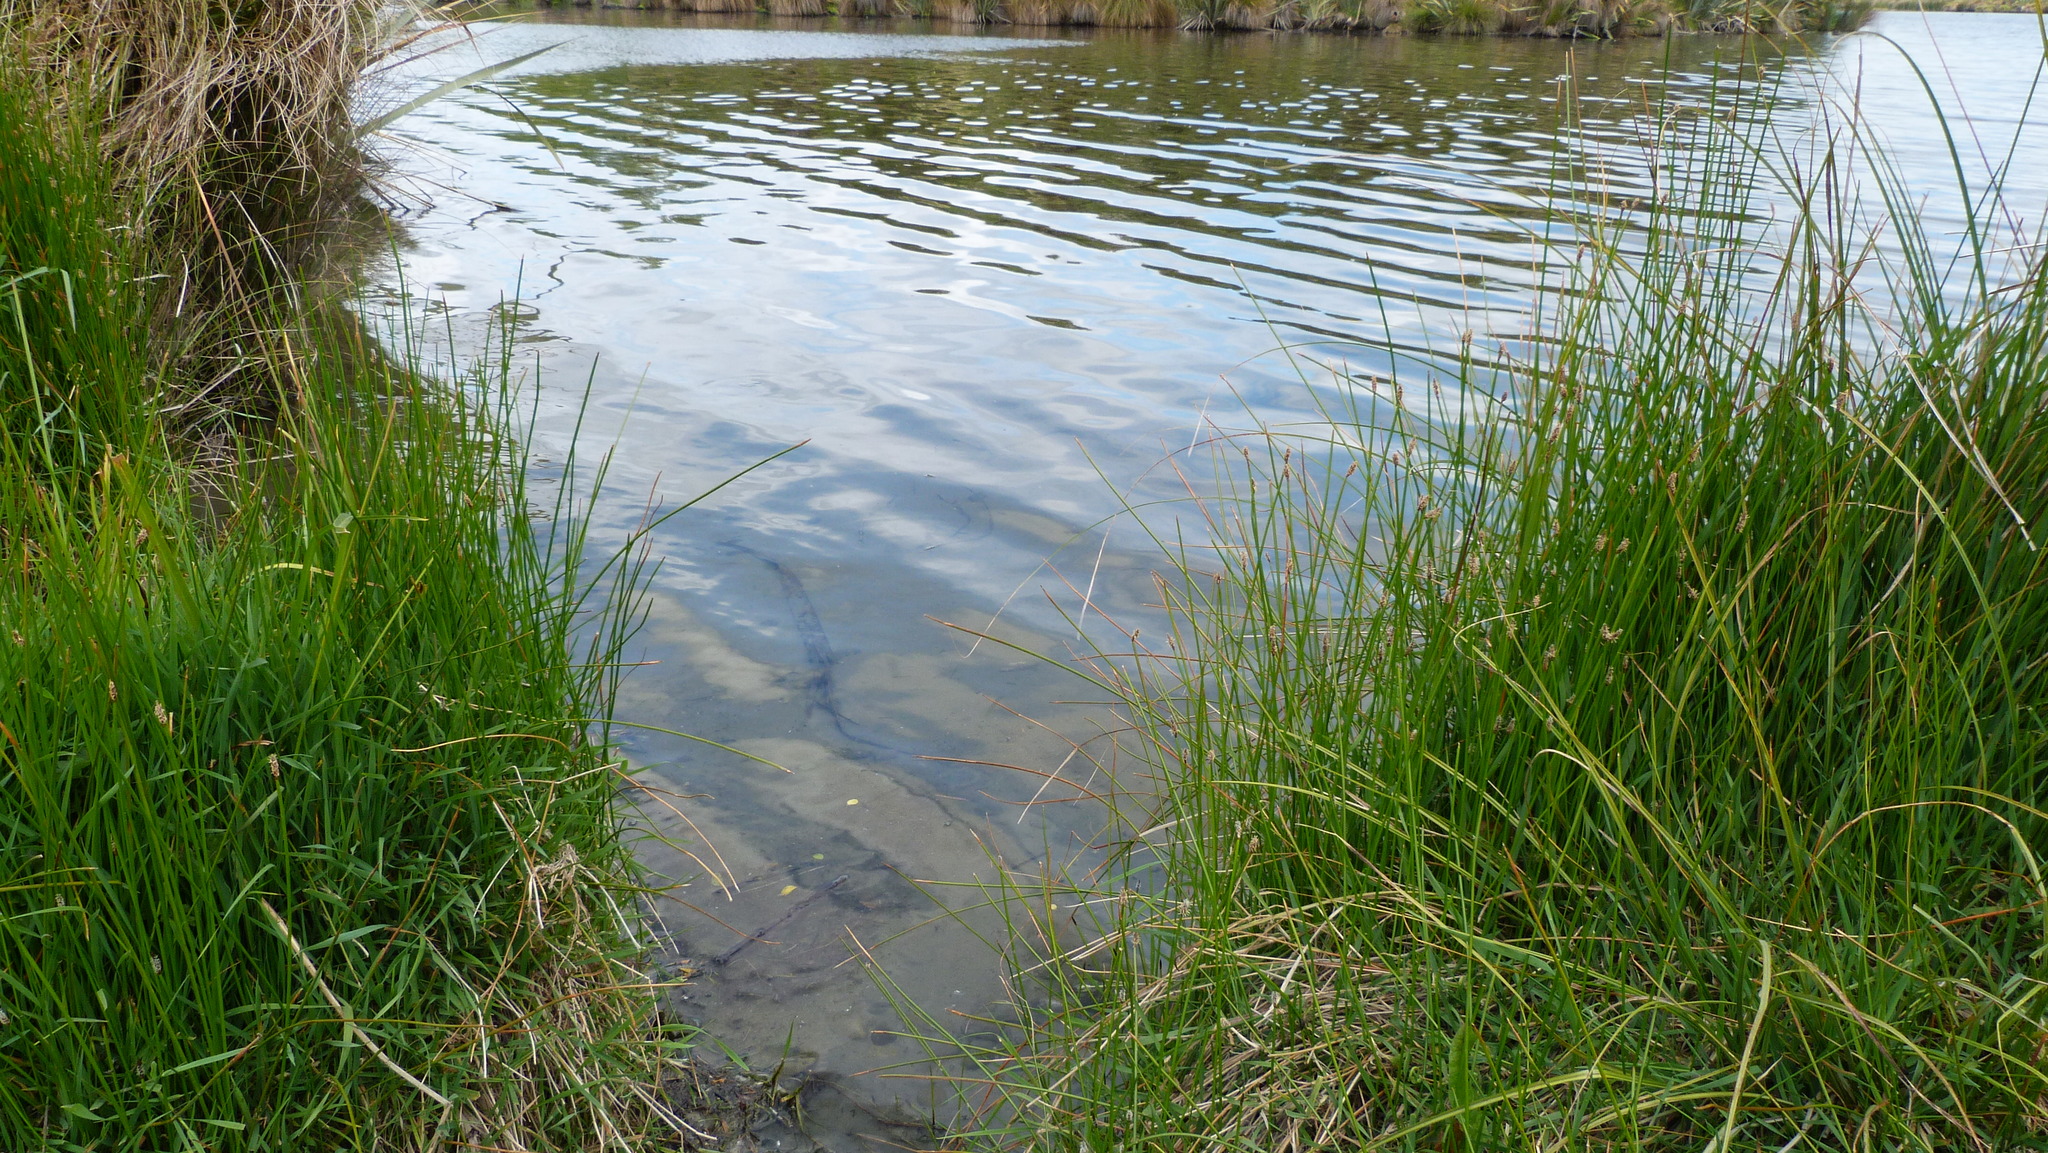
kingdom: Plantae
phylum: Tracheophyta
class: Liliopsida
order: Poales
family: Cyperaceae
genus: Eleocharis
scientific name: Eleocharis acuta
